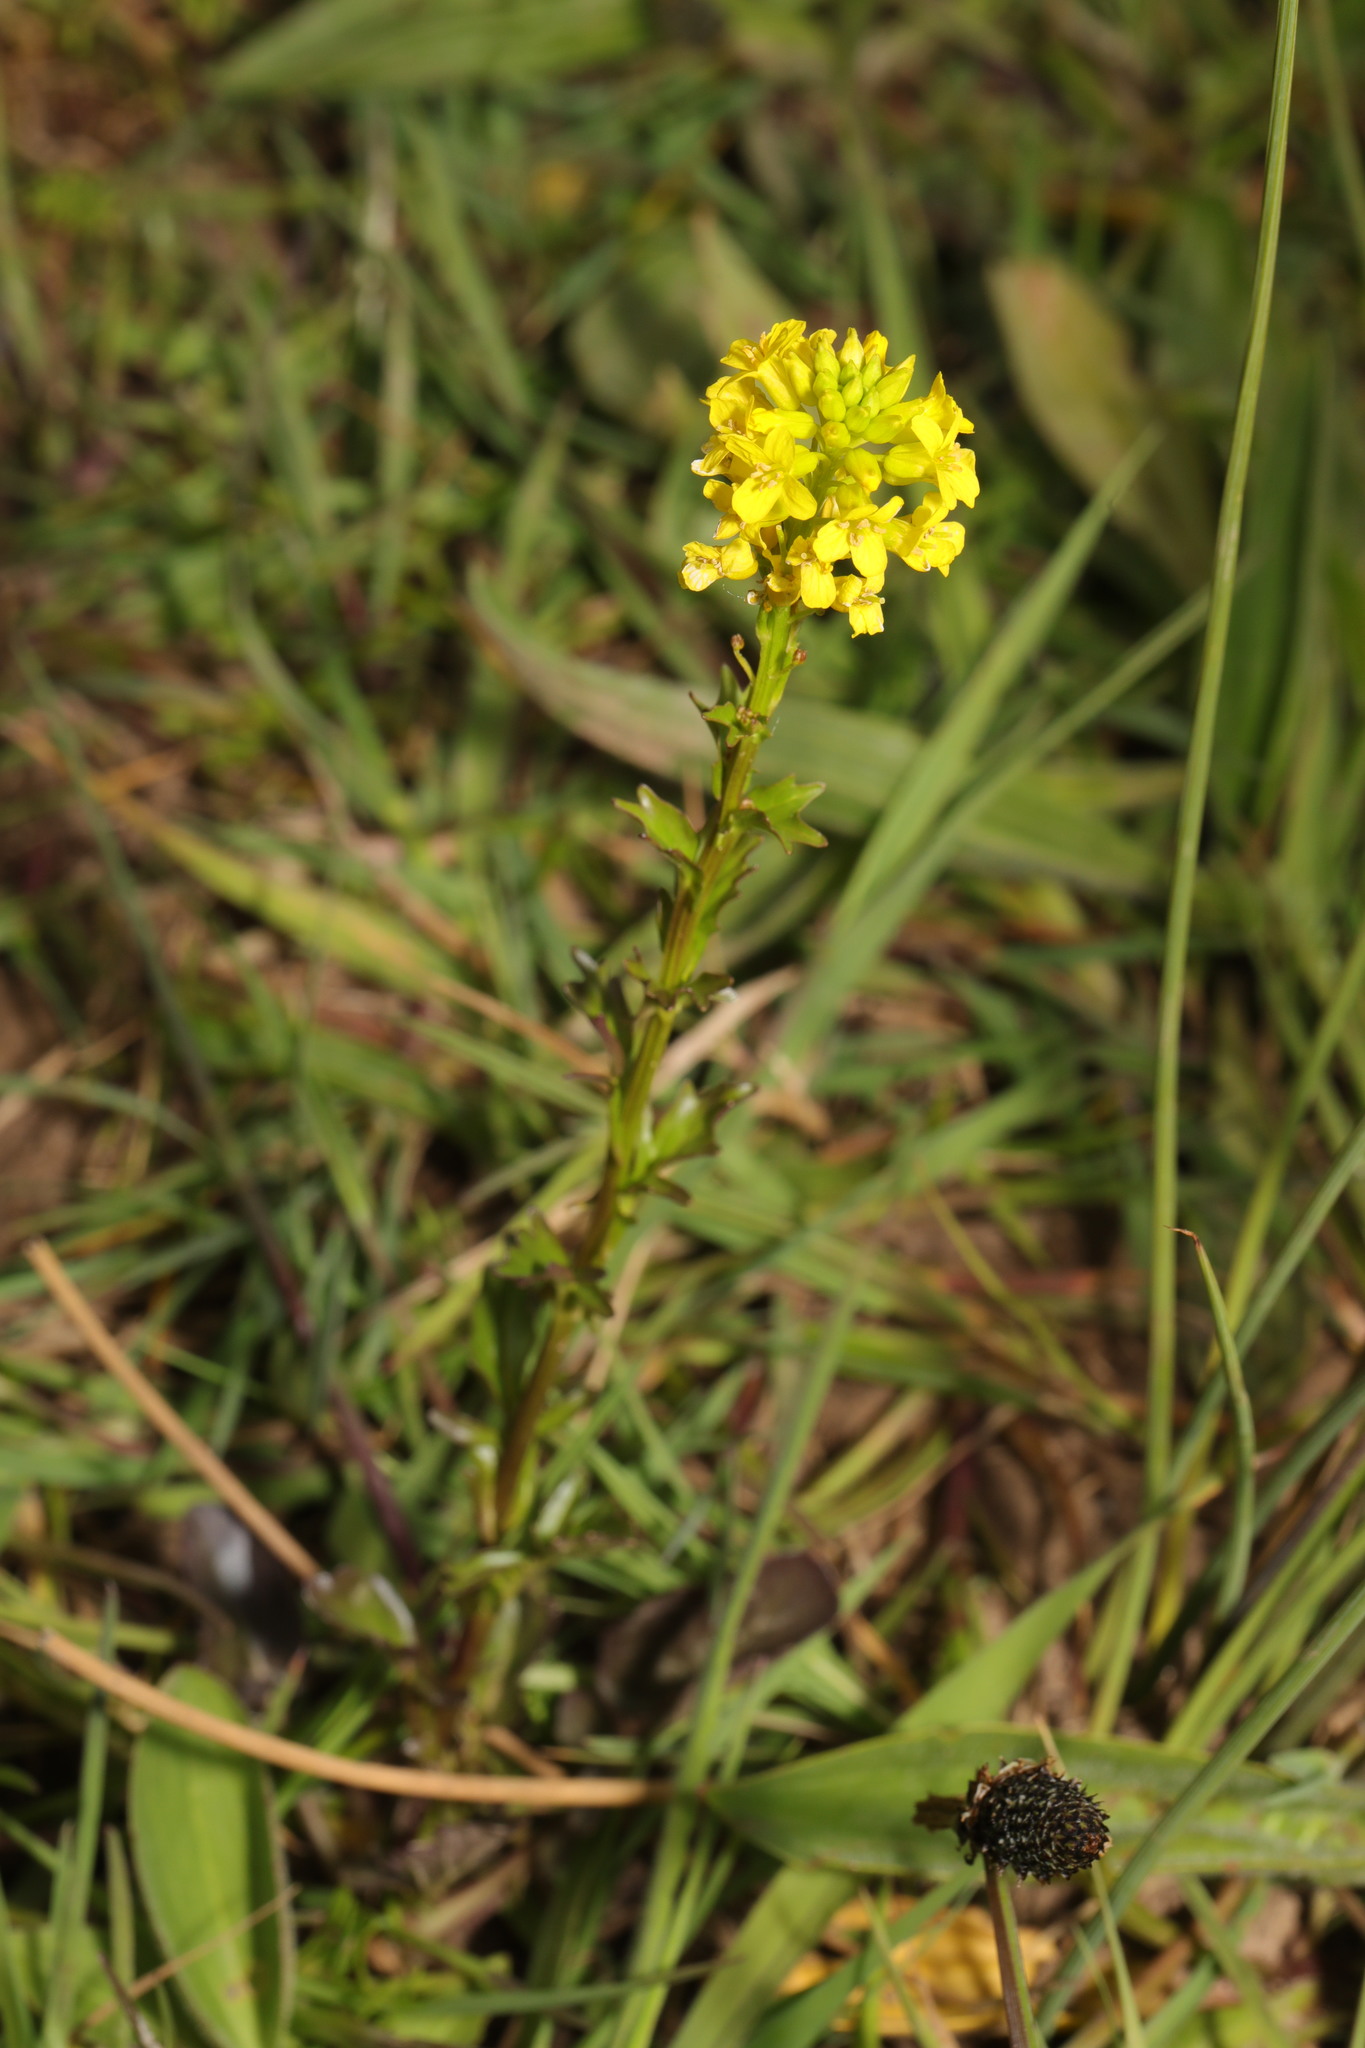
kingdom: Plantae
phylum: Tracheophyta
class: Magnoliopsida
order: Brassicales
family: Brassicaceae
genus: Barbarea
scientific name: Barbarea vulgaris
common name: Cressy-greens
